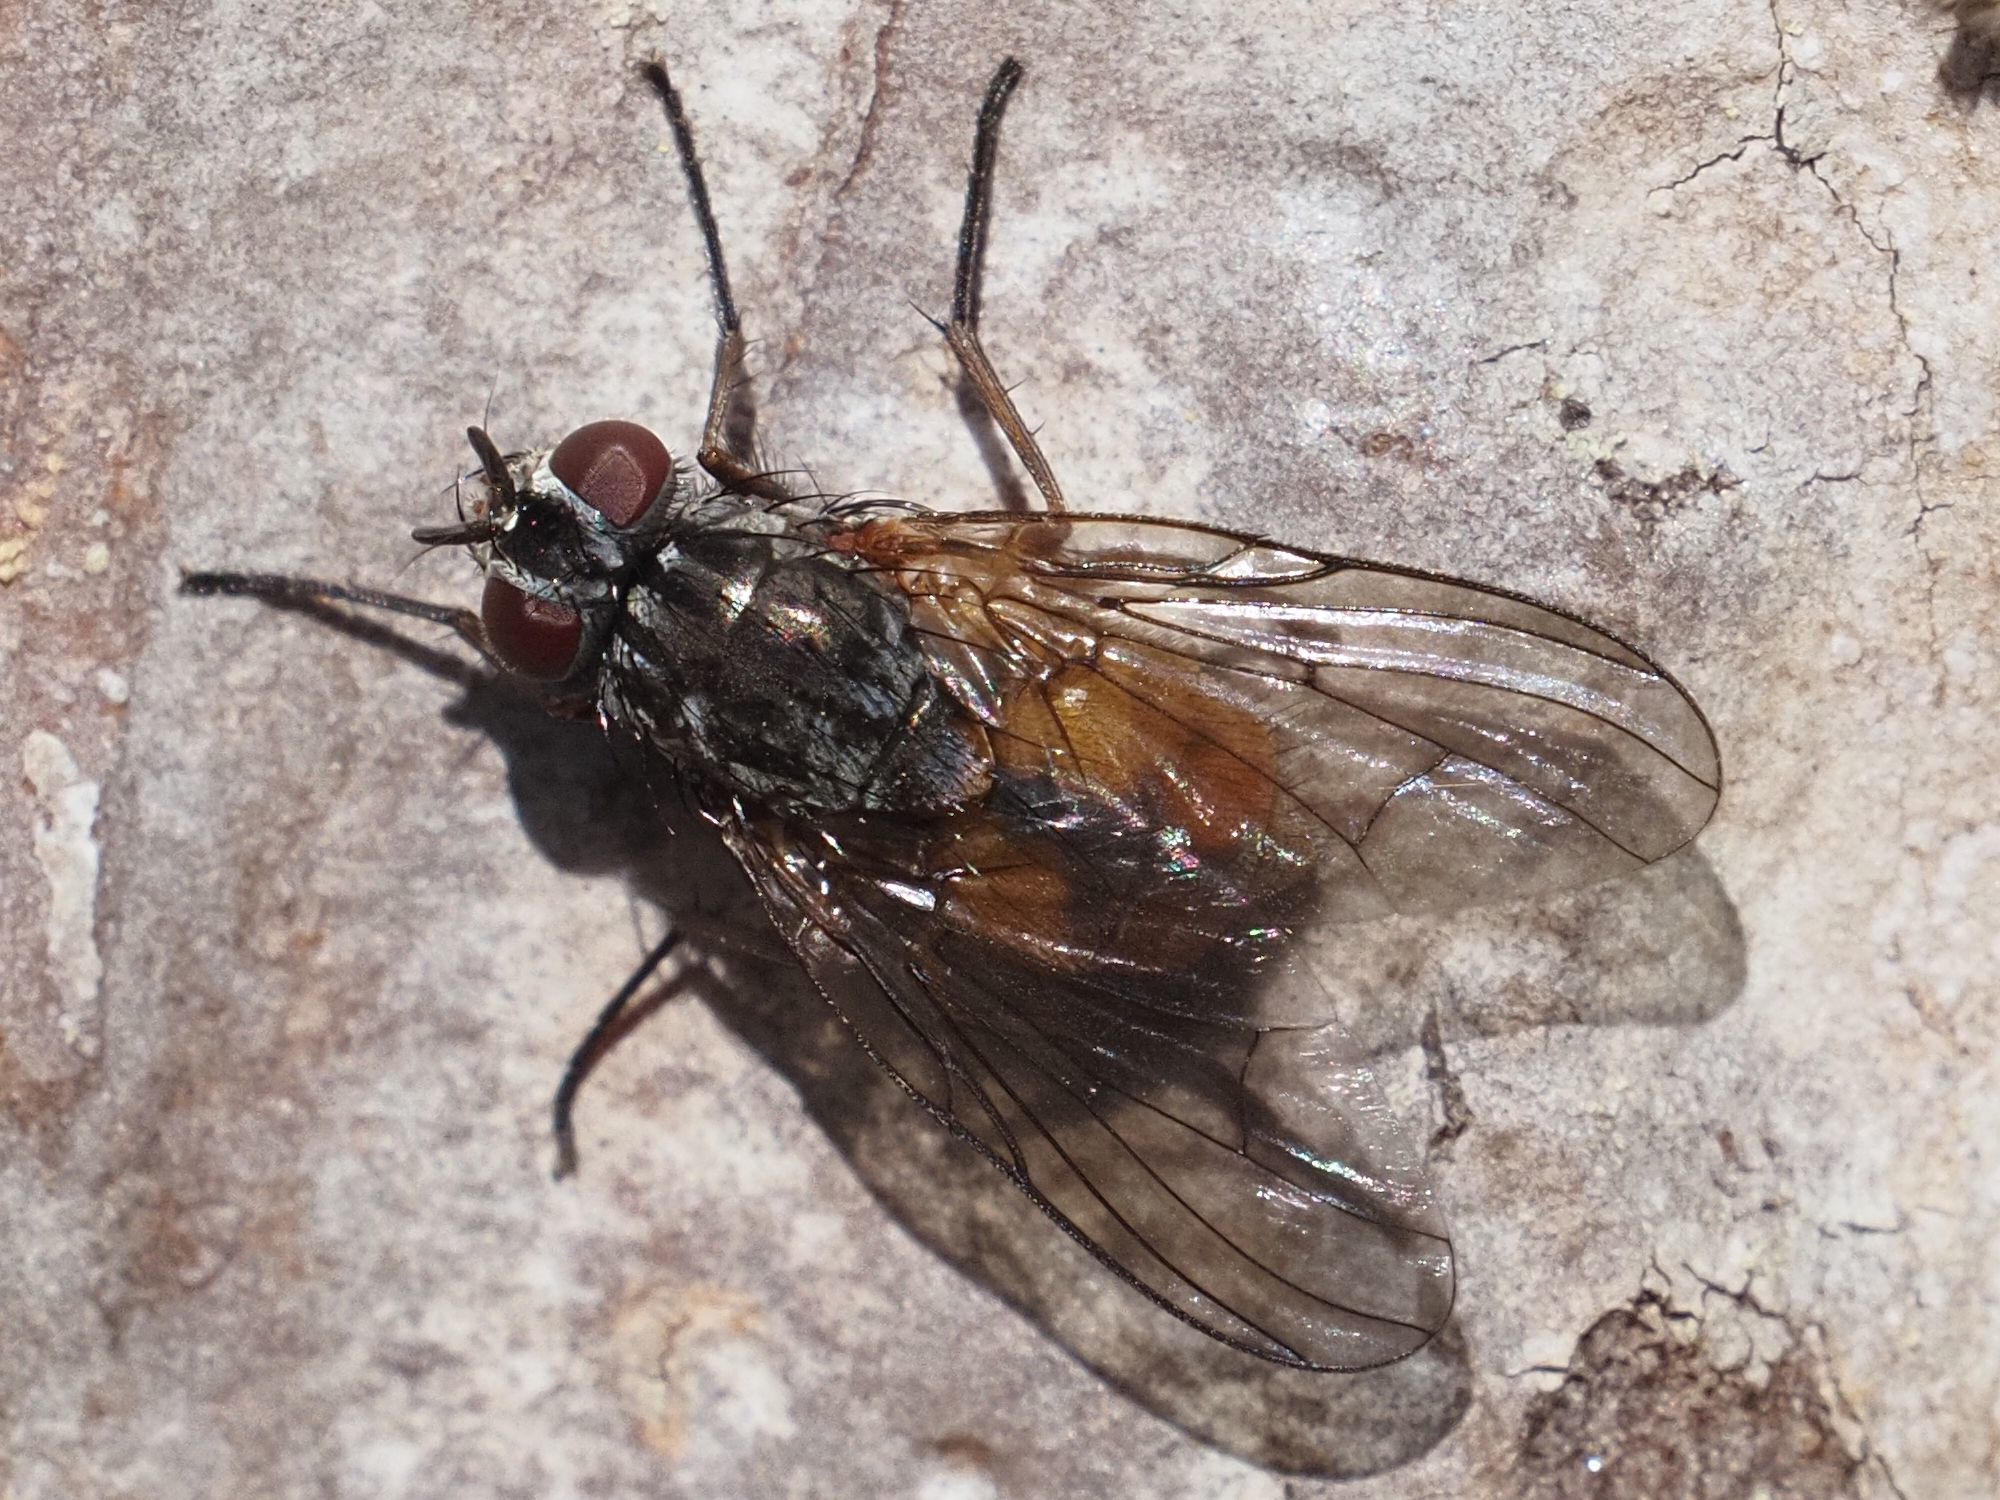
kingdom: Animalia
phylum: Arthropoda
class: Insecta
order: Diptera
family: Muscidae
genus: Phaonia
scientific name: Phaonia subventa
